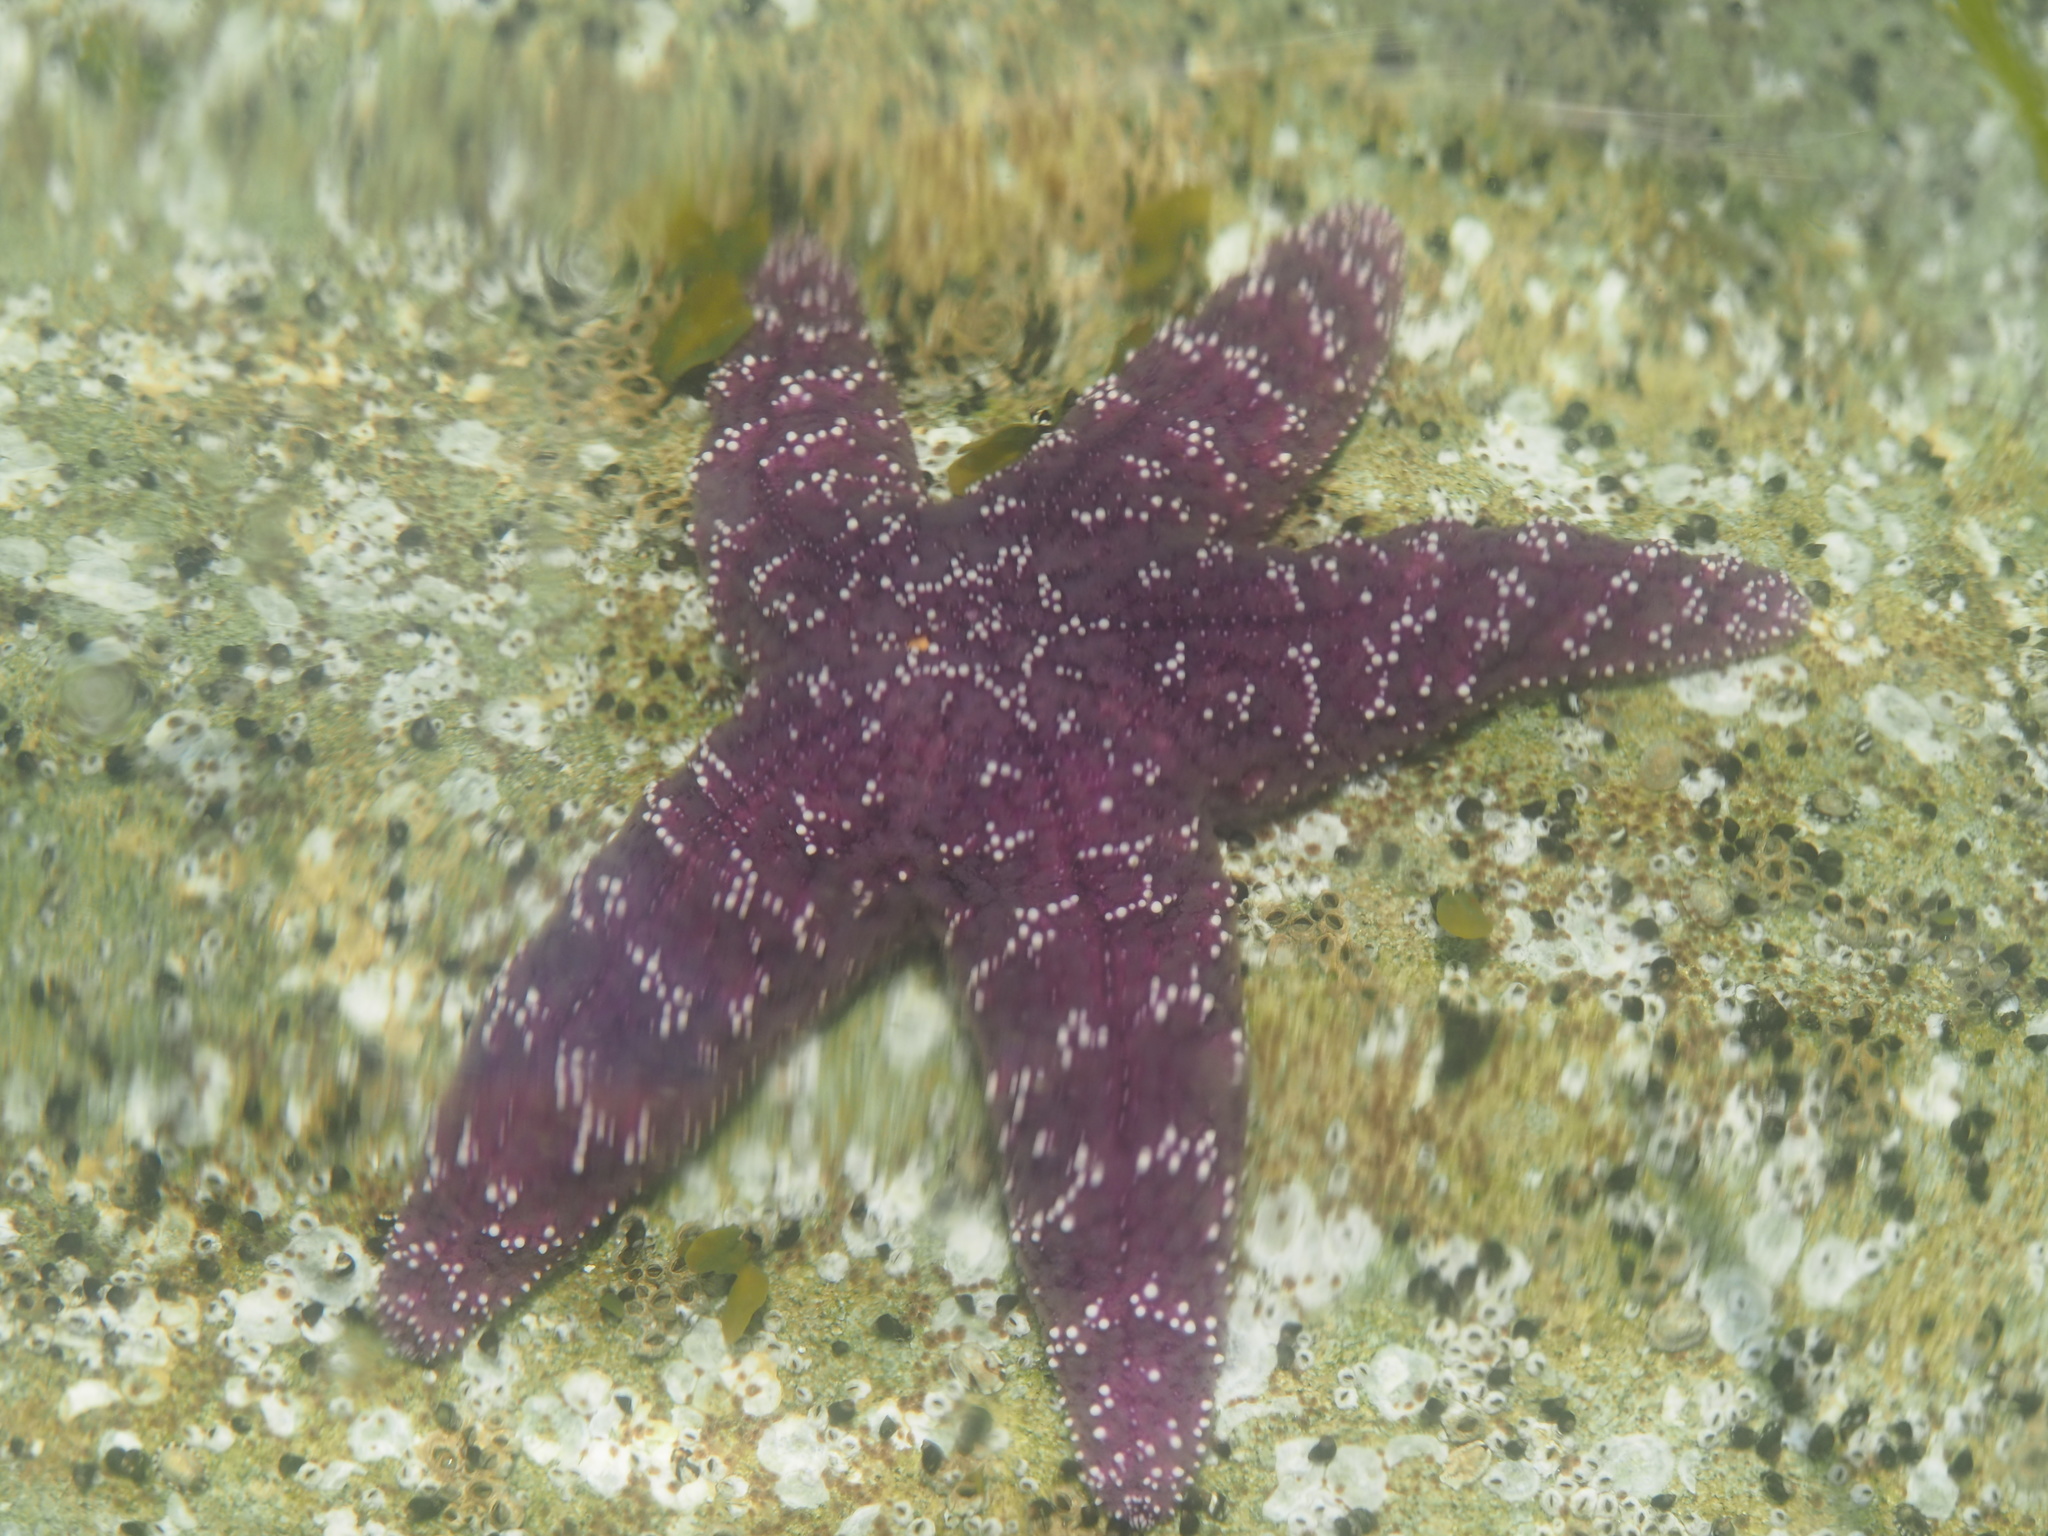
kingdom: Animalia
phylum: Echinodermata
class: Asteroidea
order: Forcipulatida
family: Asteriidae
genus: Pisaster
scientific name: Pisaster ochraceus
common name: Ochre stars
